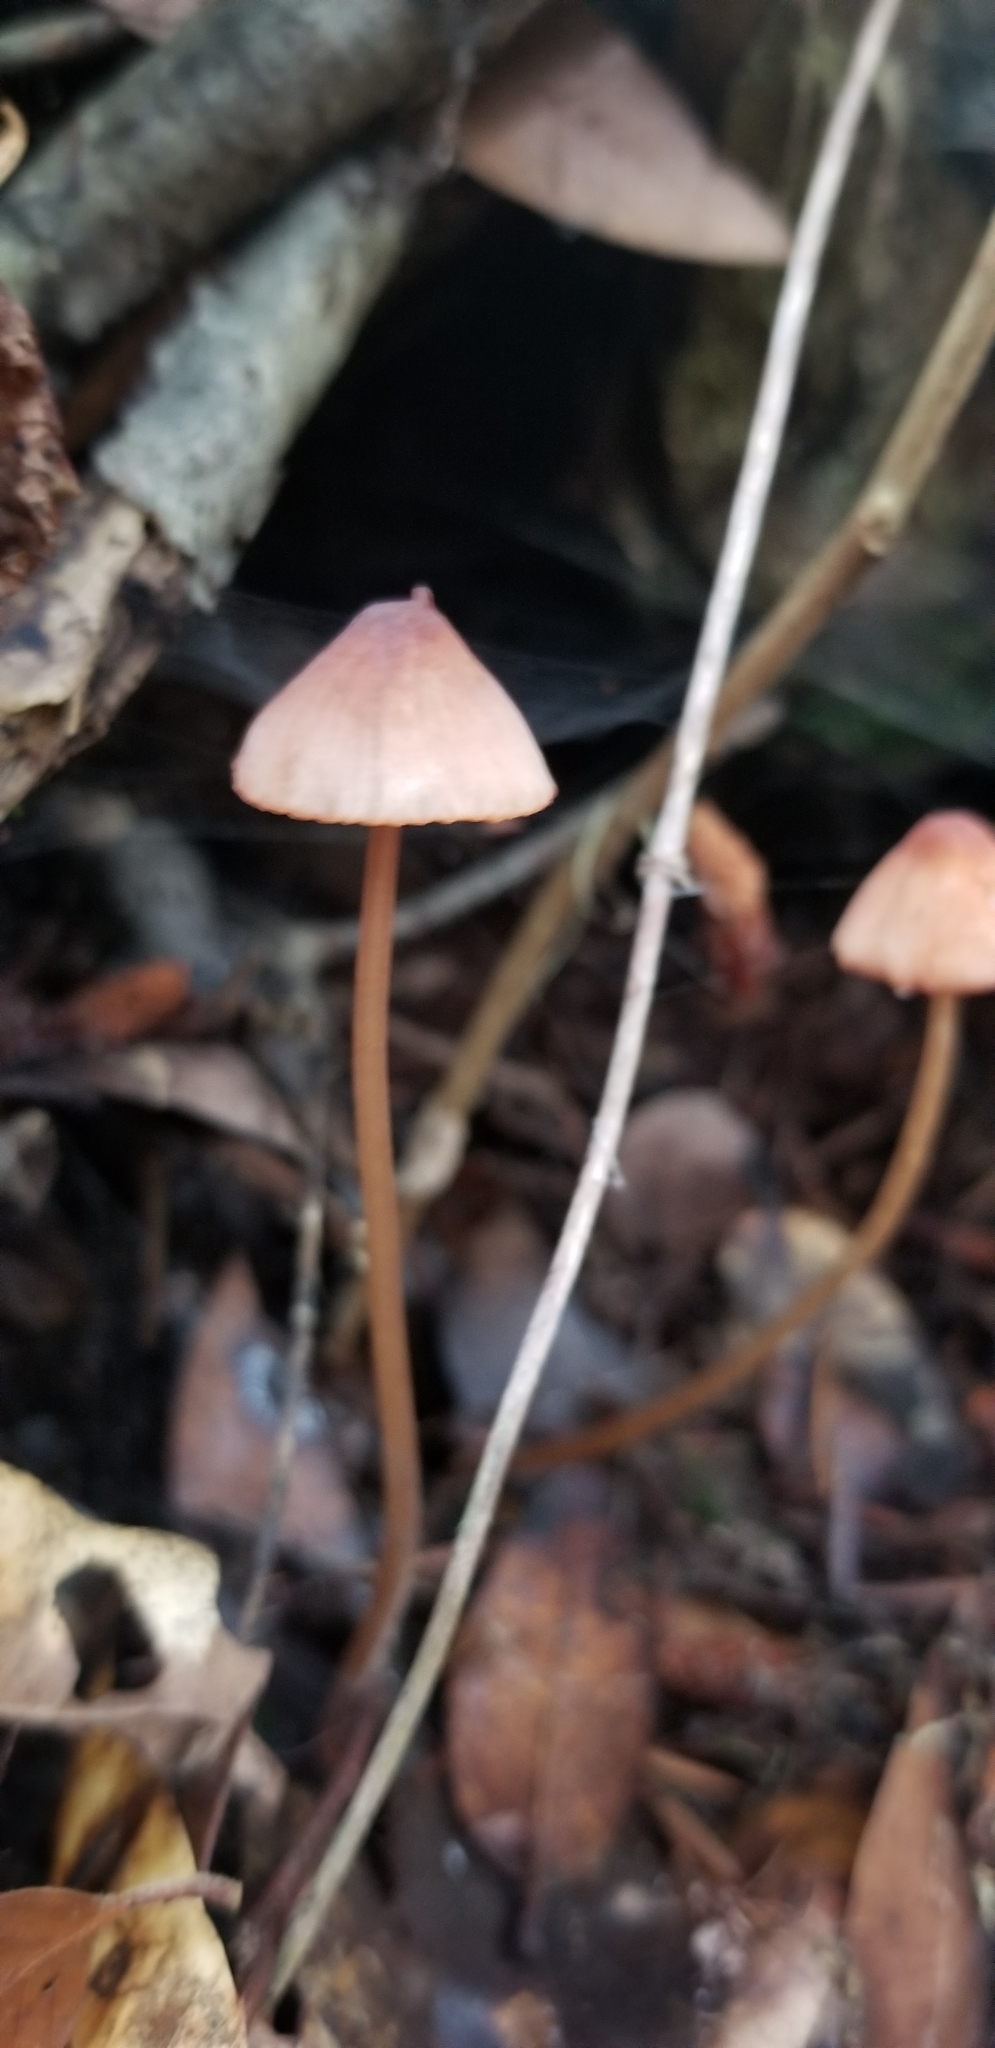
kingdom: Fungi
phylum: Basidiomycota
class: Agaricomycetes
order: Agaricales
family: Mycenaceae
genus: Mycena
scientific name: Mycena
